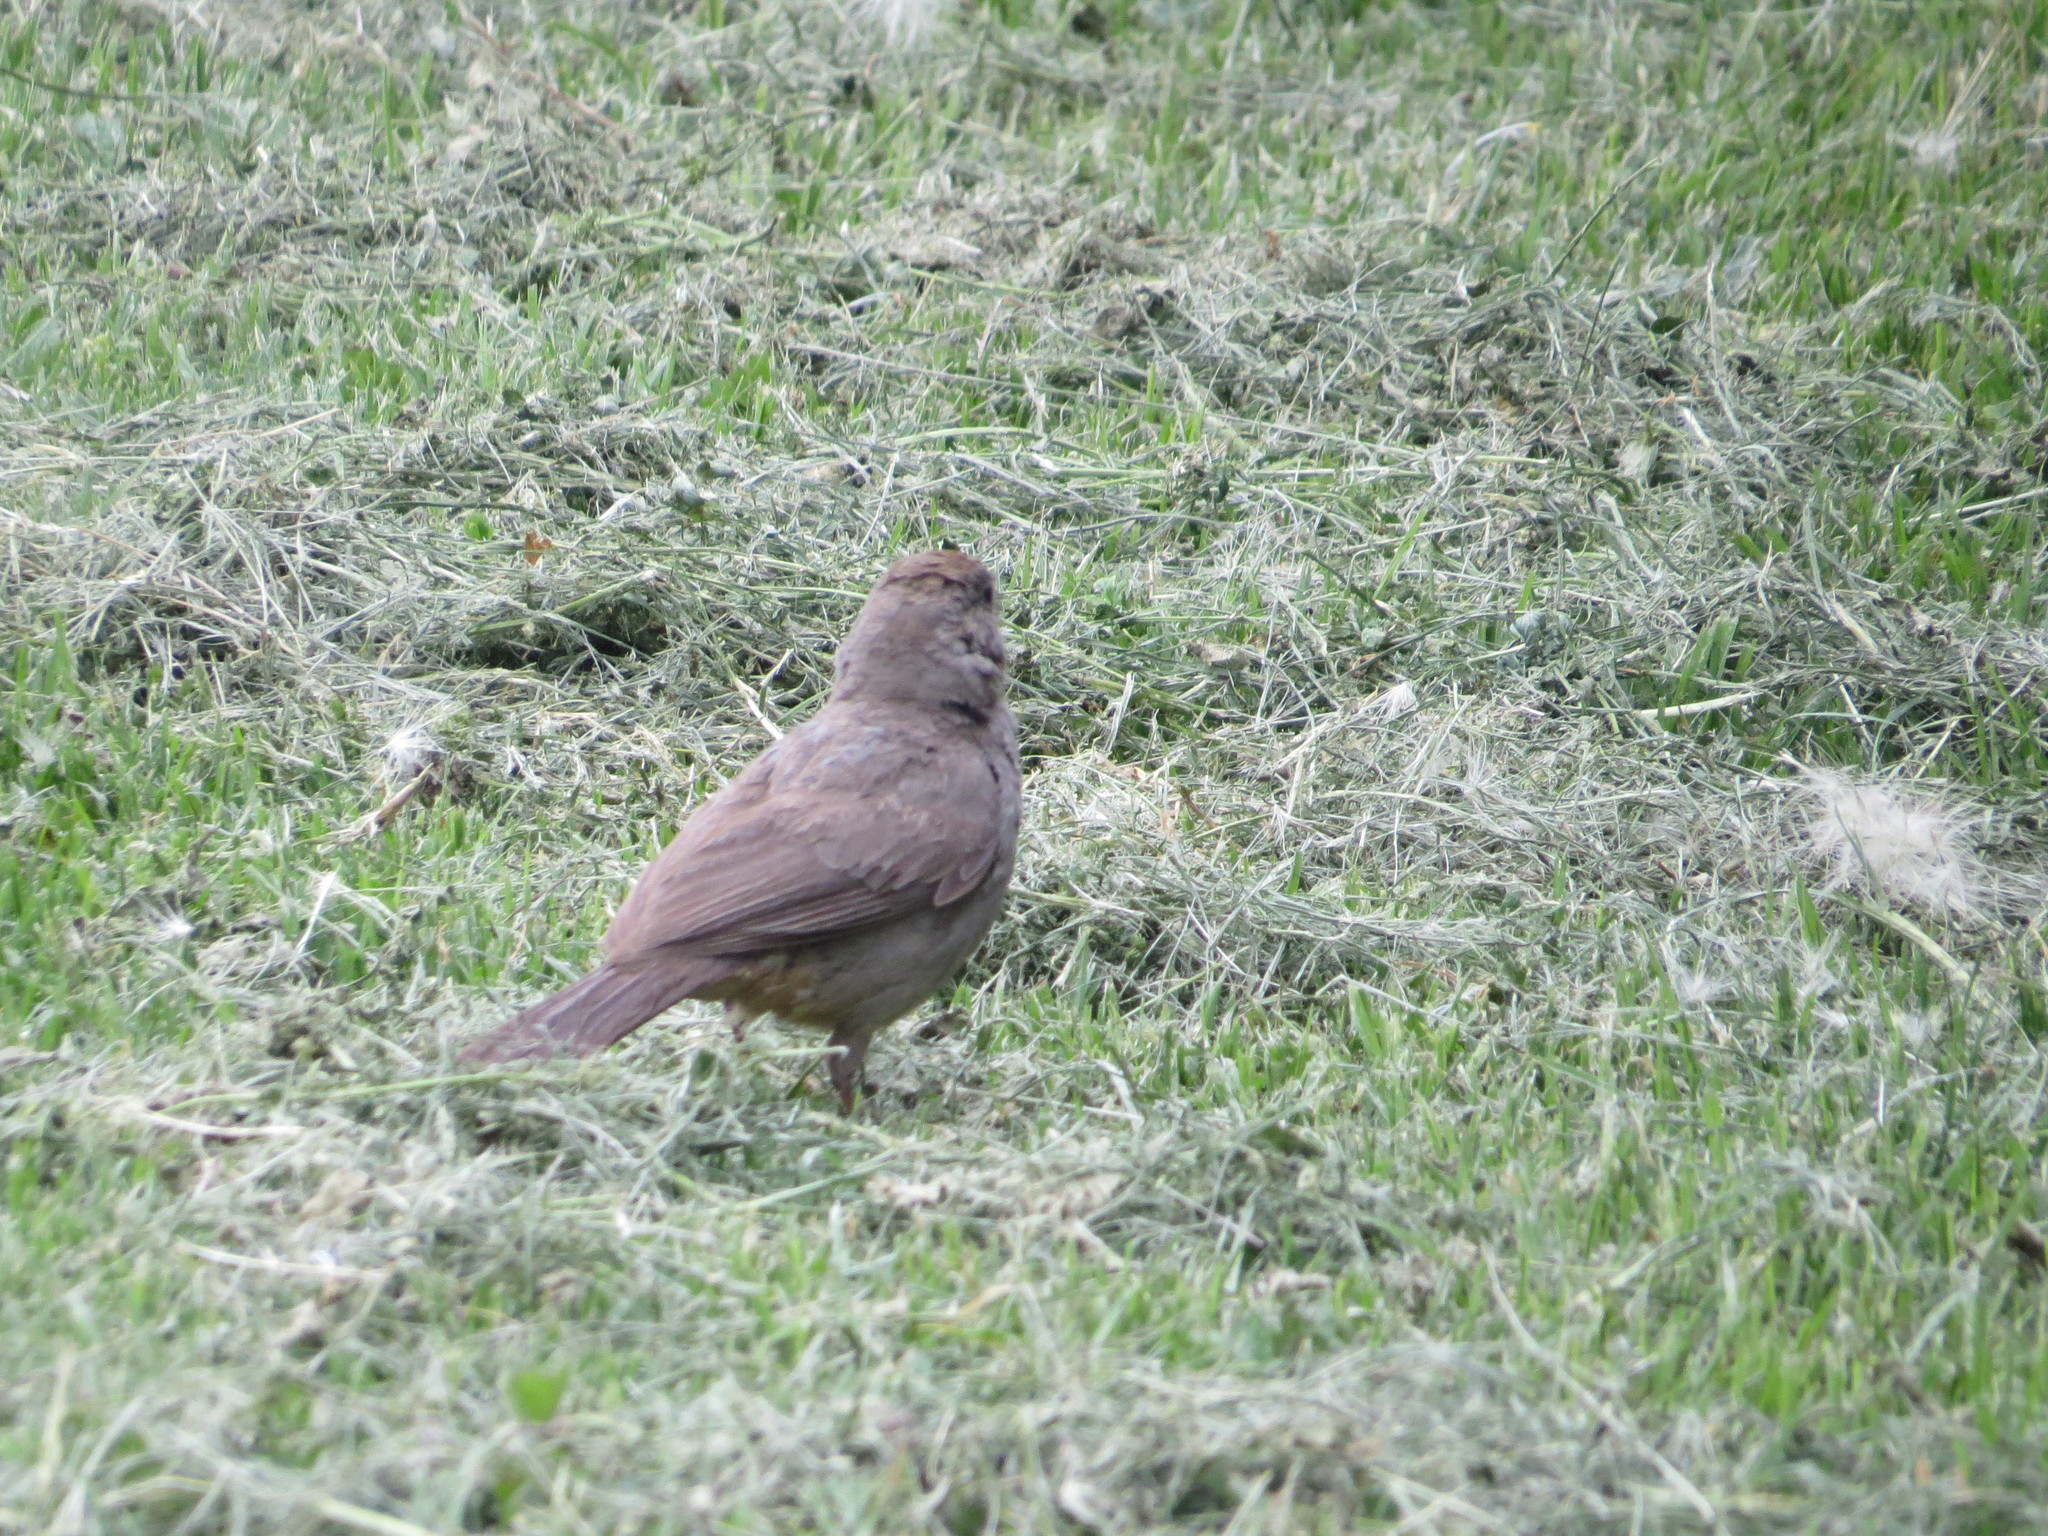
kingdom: Animalia
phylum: Chordata
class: Aves
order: Passeriformes
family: Passerellidae
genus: Melozone
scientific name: Melozone fusca
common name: Canyon towhee
